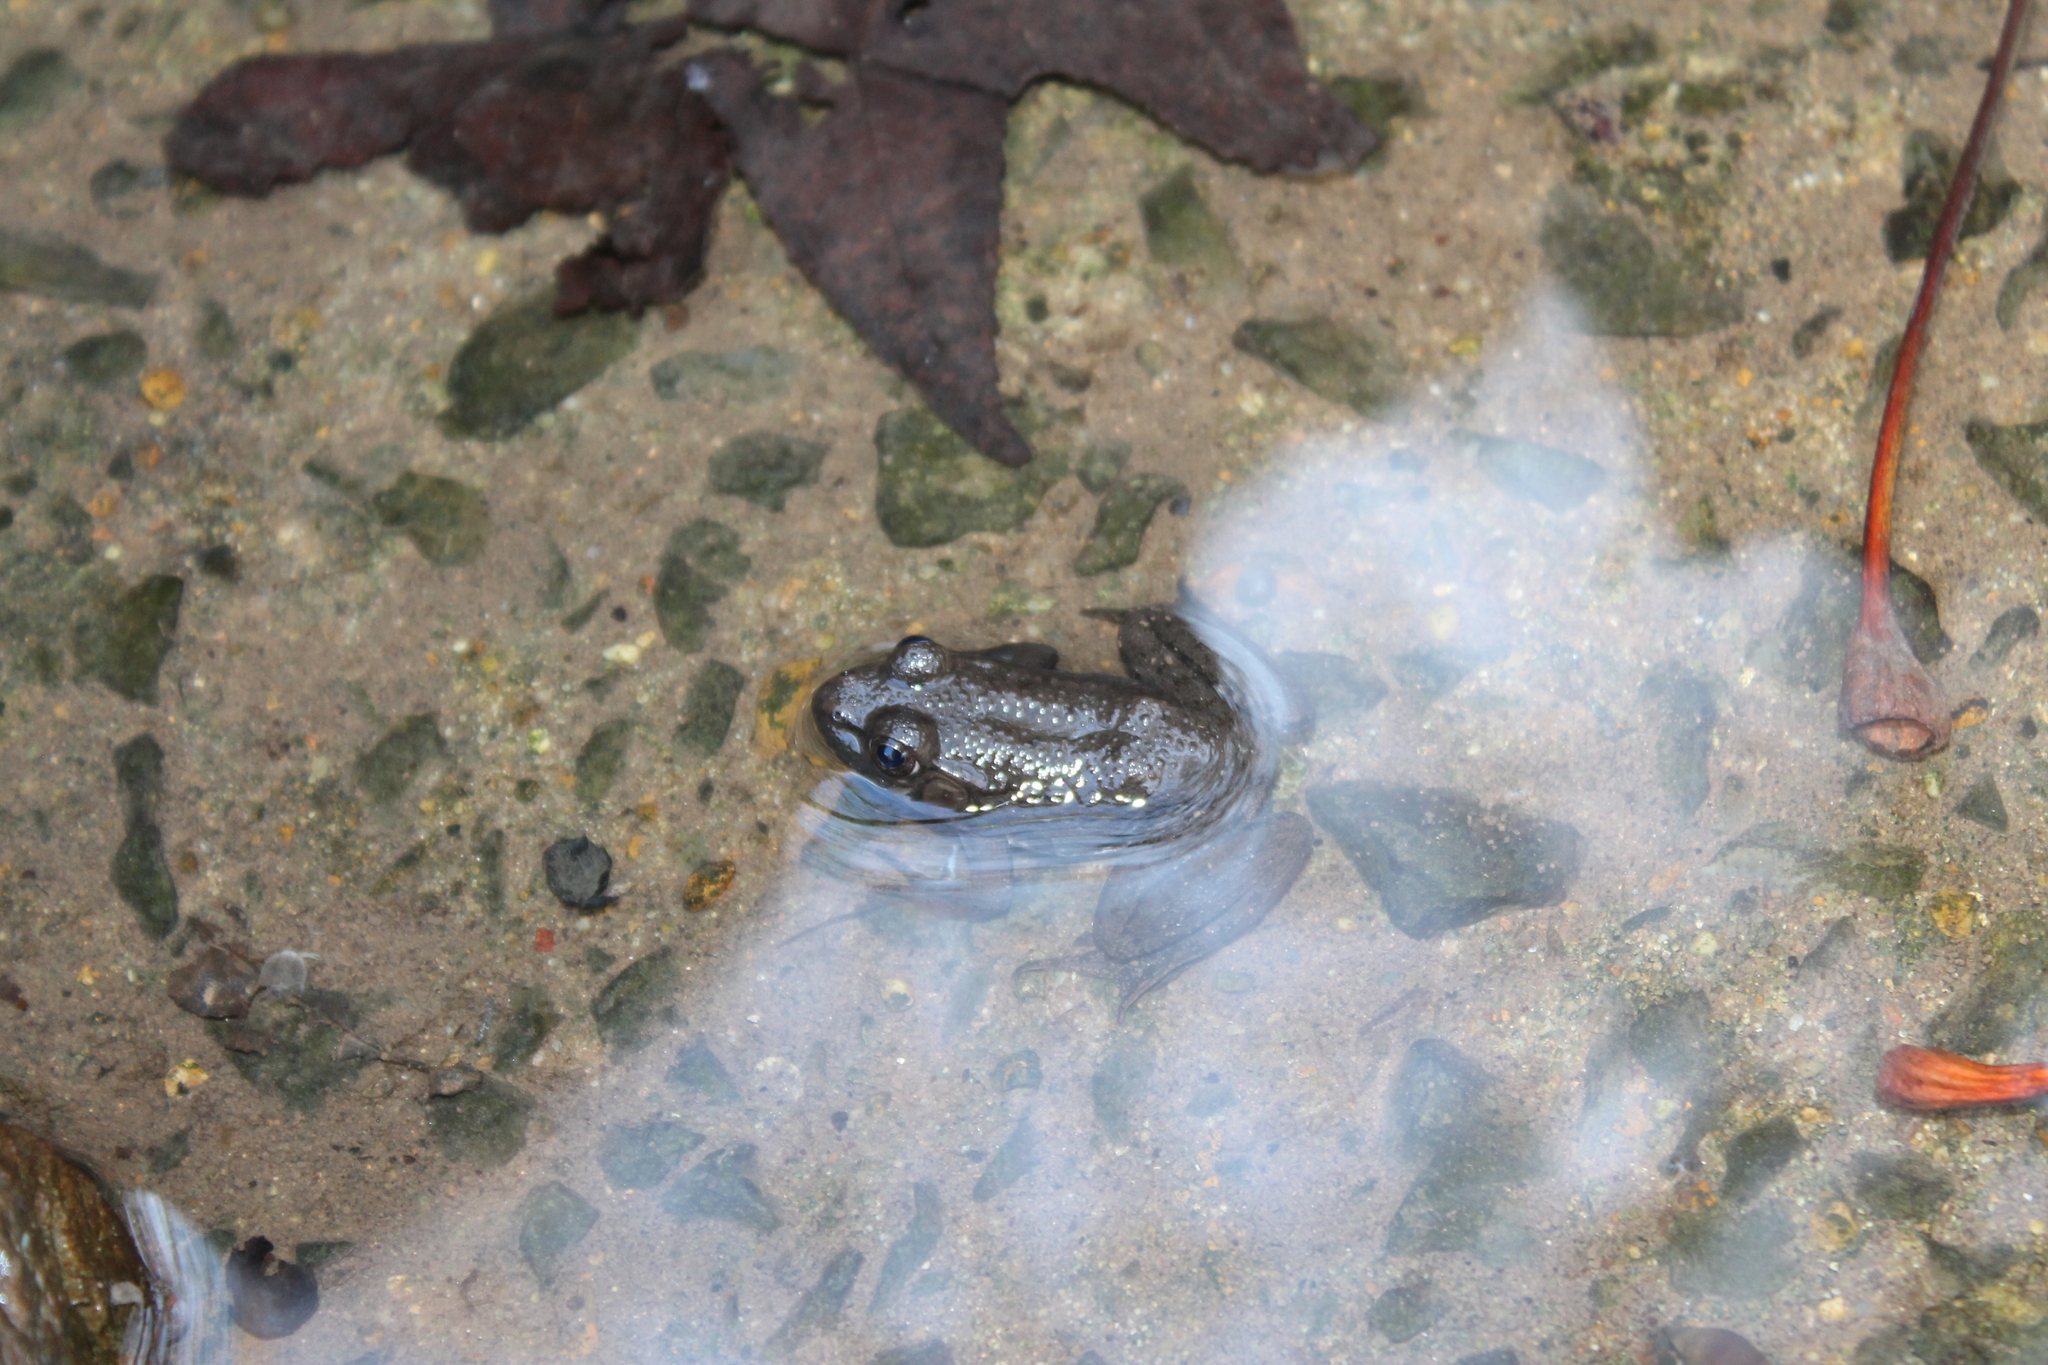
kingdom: Animalia
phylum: Chordata
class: Amphibia
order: Anura
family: Ranidae
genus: Lithobates
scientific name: Lithobates catesbeianus
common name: American bullfrog
